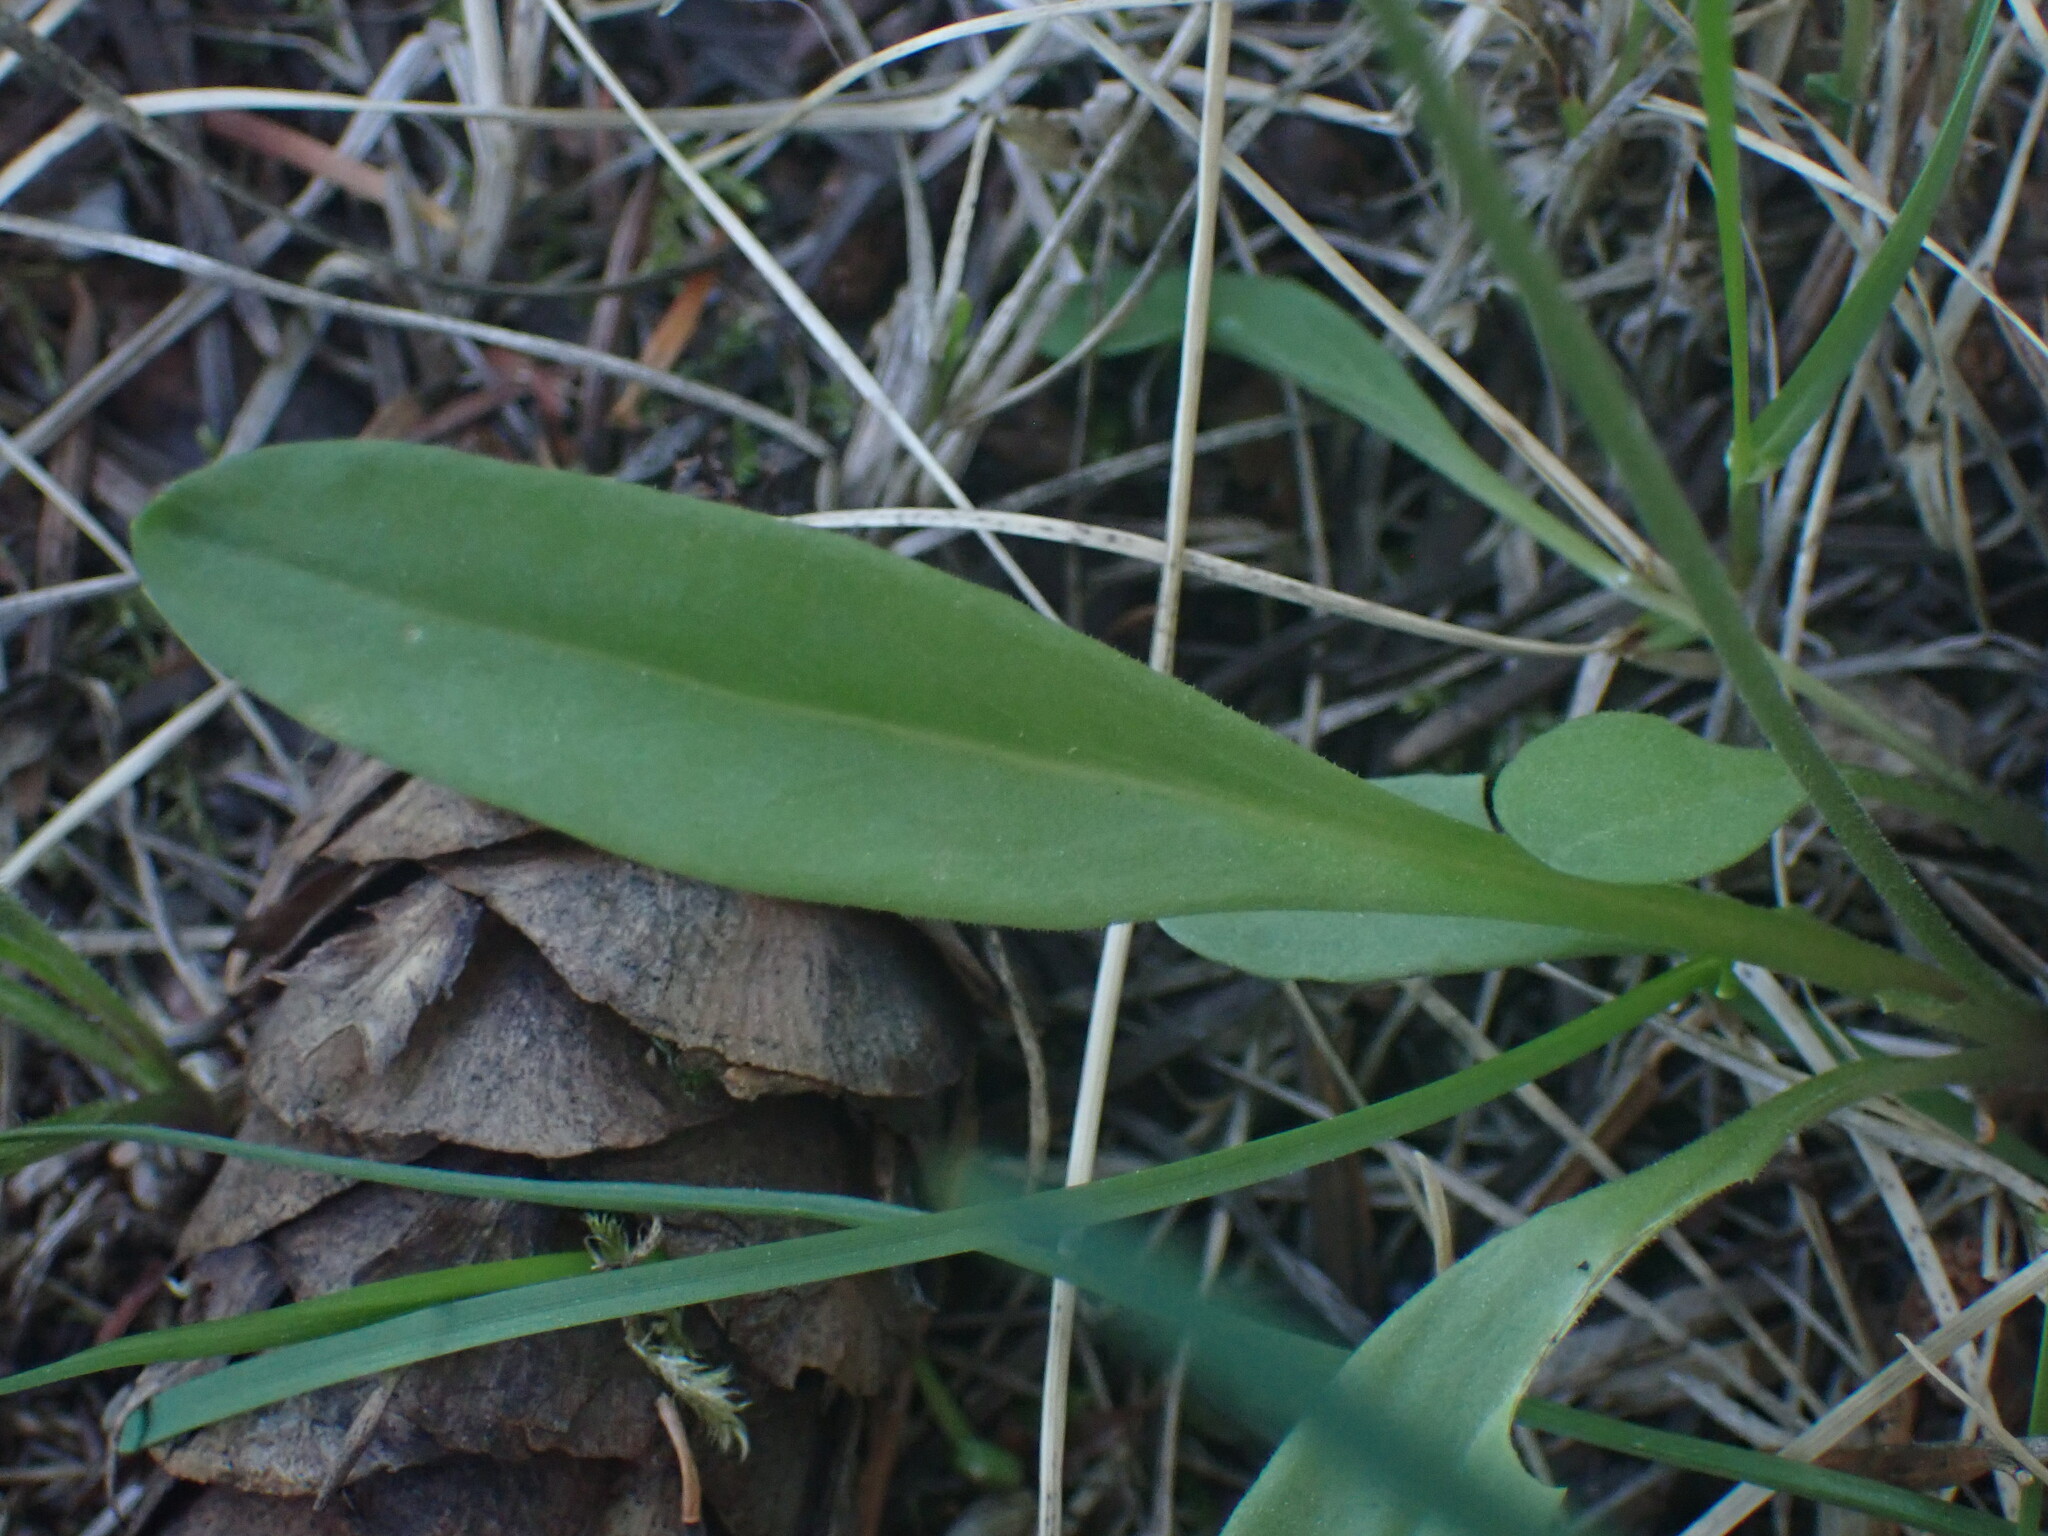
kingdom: Plantae
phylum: Tracheophyta
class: Magnoliopsida
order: Ericales
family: Primulaceae
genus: Dodecatheon
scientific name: Dodecatheon pulchellum
